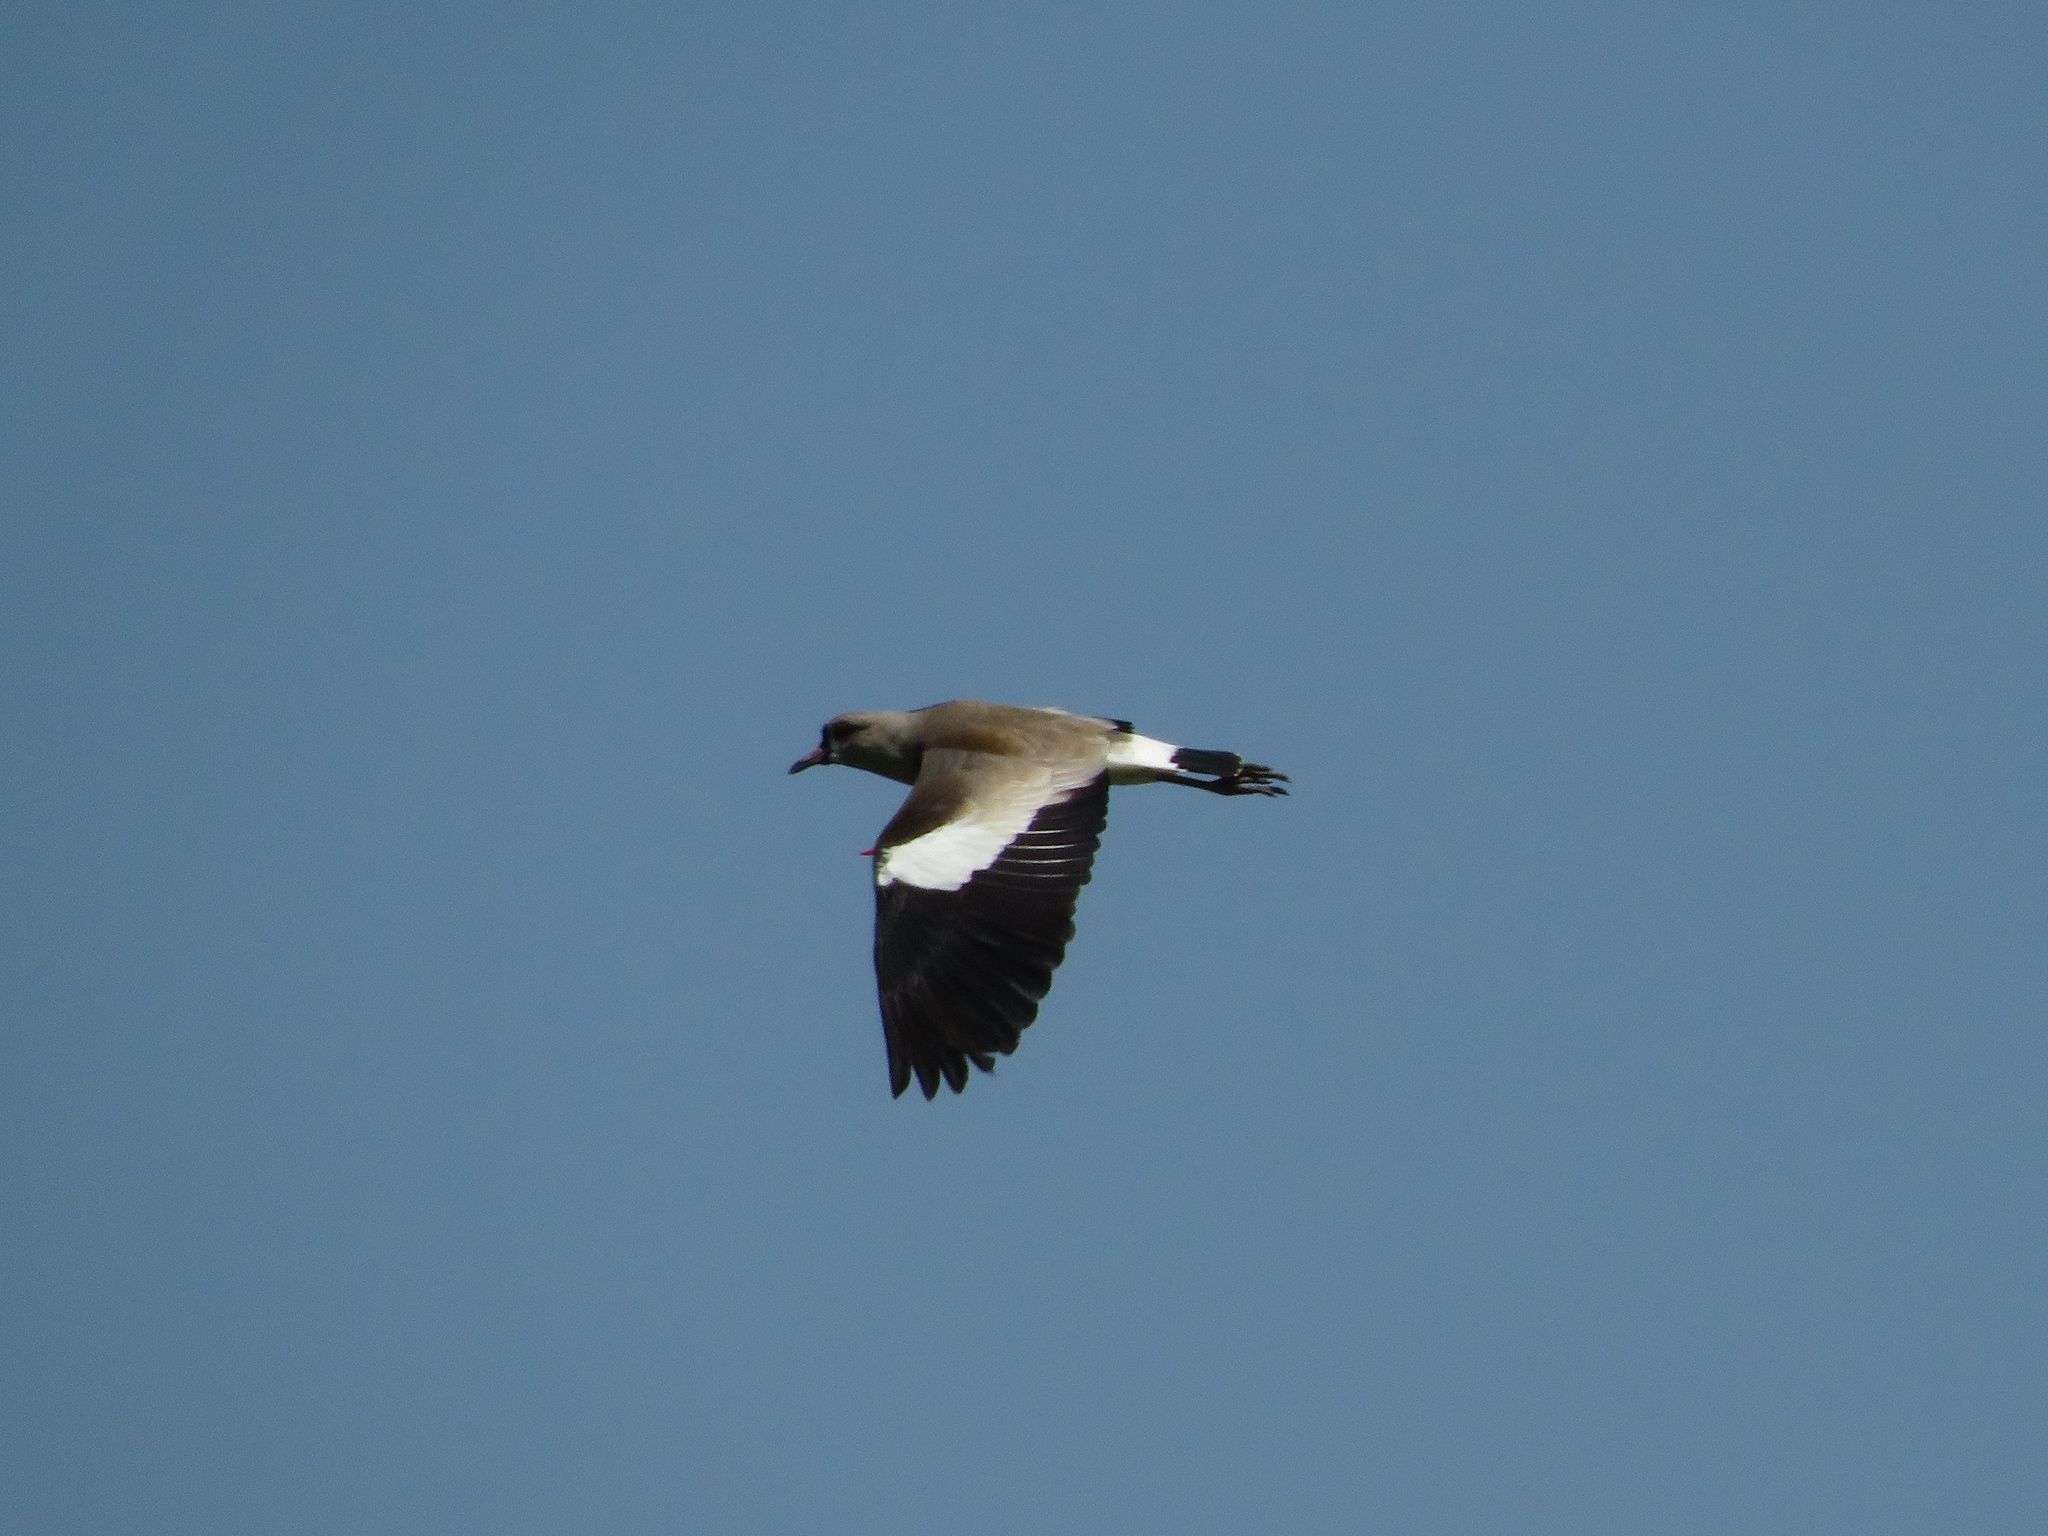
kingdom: Animalia
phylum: Chordata
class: Aves
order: Charadriiformes
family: Charadriidae
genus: Vanellus
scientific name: Vanellus chilensis
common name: Southern lapwing
